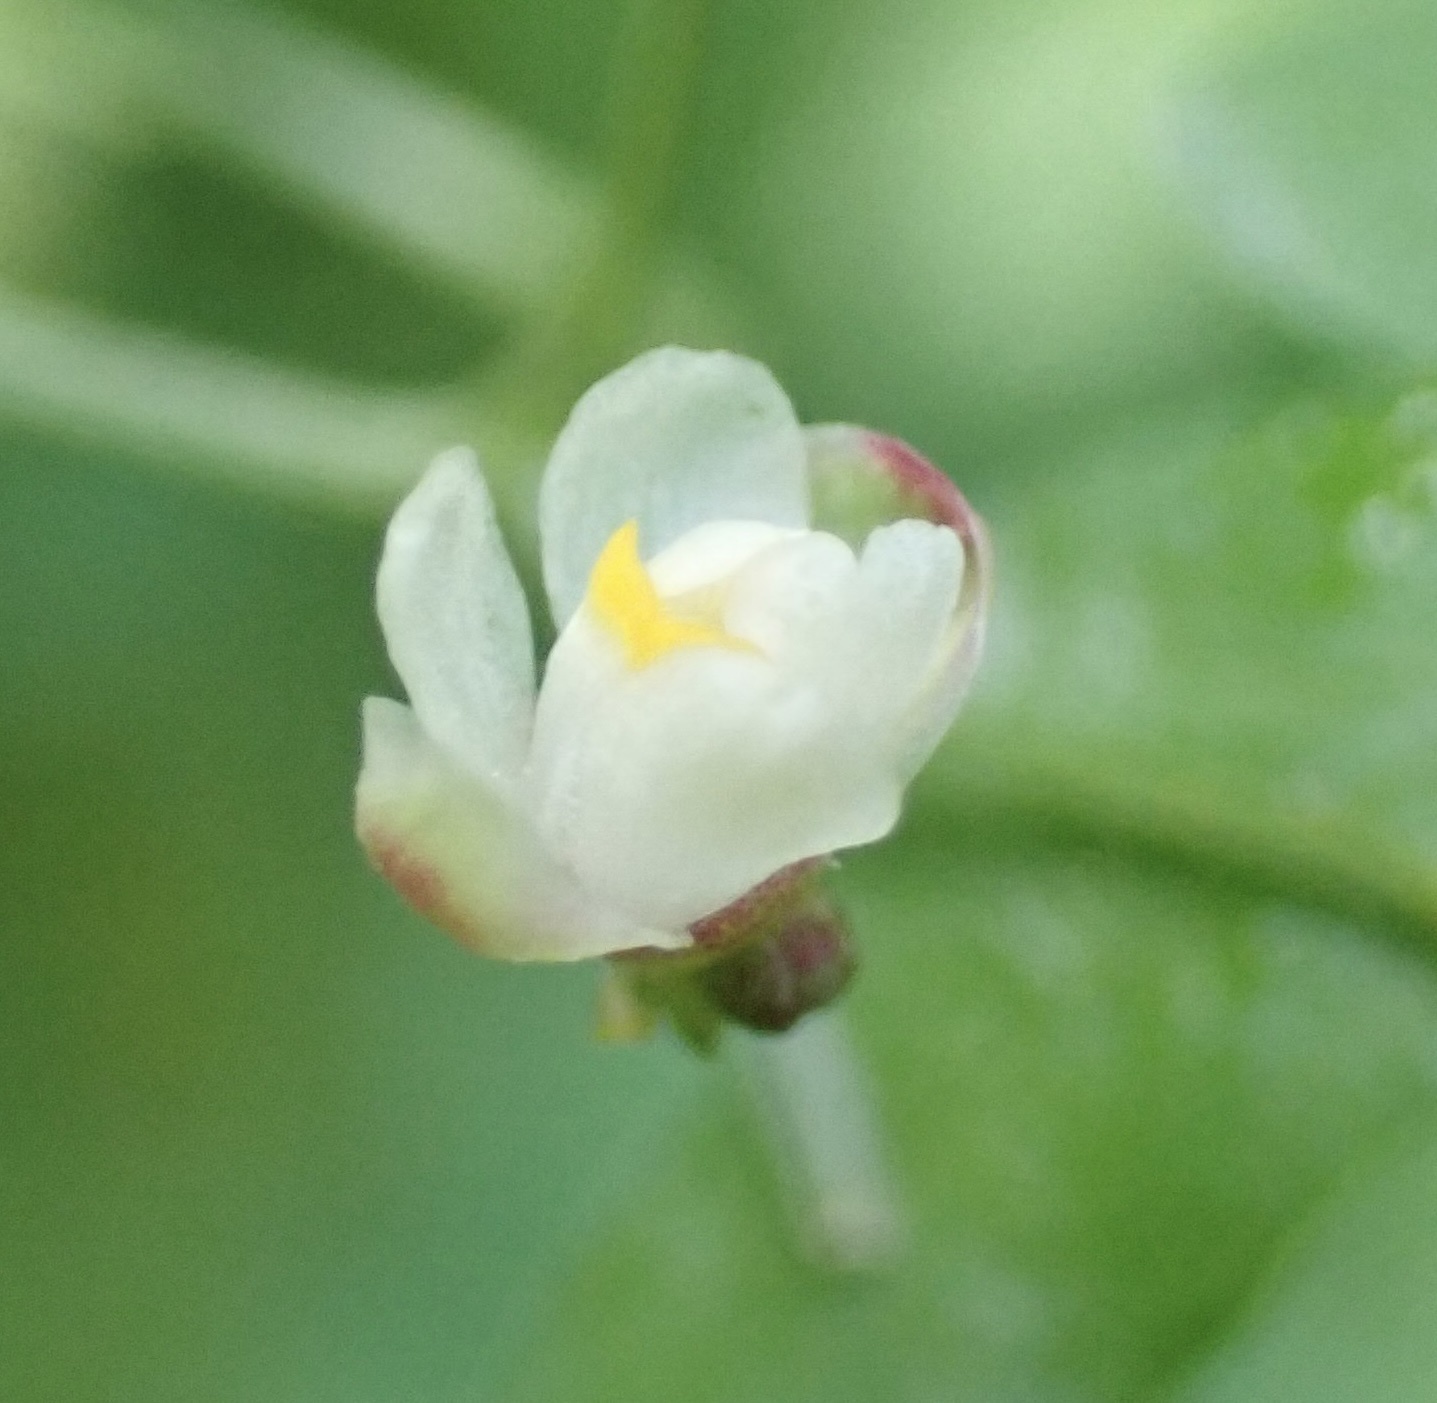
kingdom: Plantae
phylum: Tracheophyta
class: Magnoliopsida
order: Sapindales
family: Sapindaceae
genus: Cardiospermum
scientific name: Cardiospermum halicacabum
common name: Balloon vine
